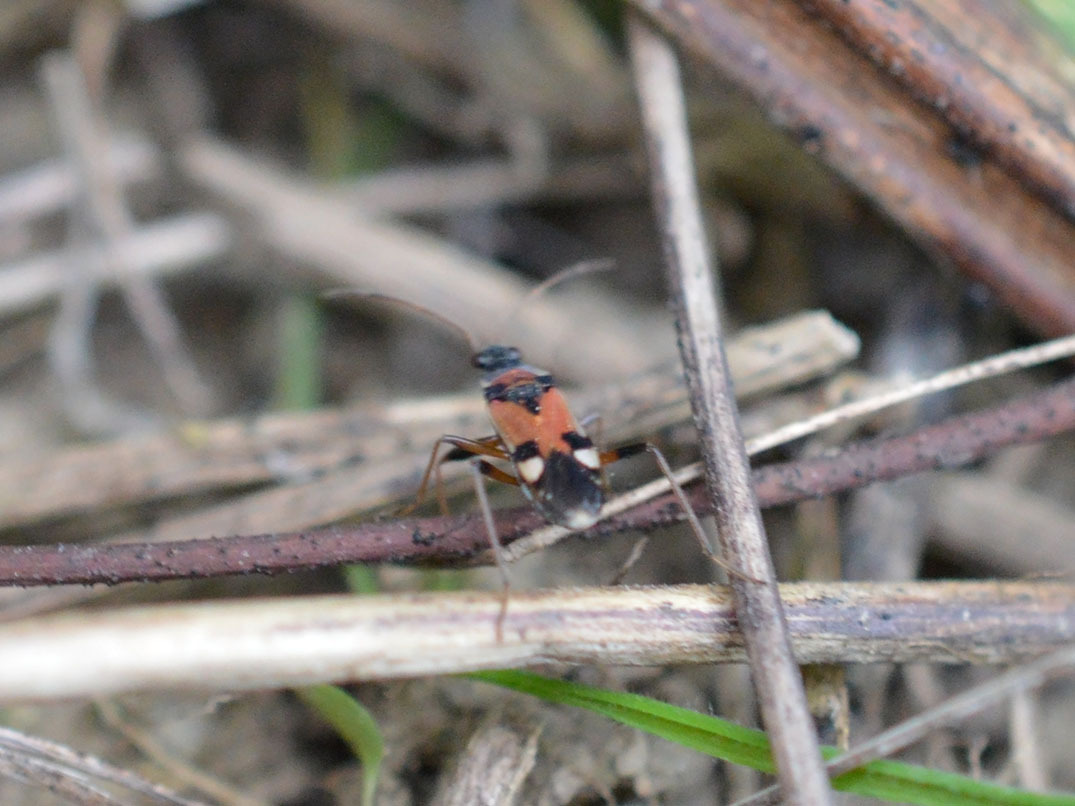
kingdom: Animalia
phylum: Arthropoda
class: Insecta
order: Hemiptera
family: Rhyparochromidae
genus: Beosus
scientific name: Beosus quadripunctatus
